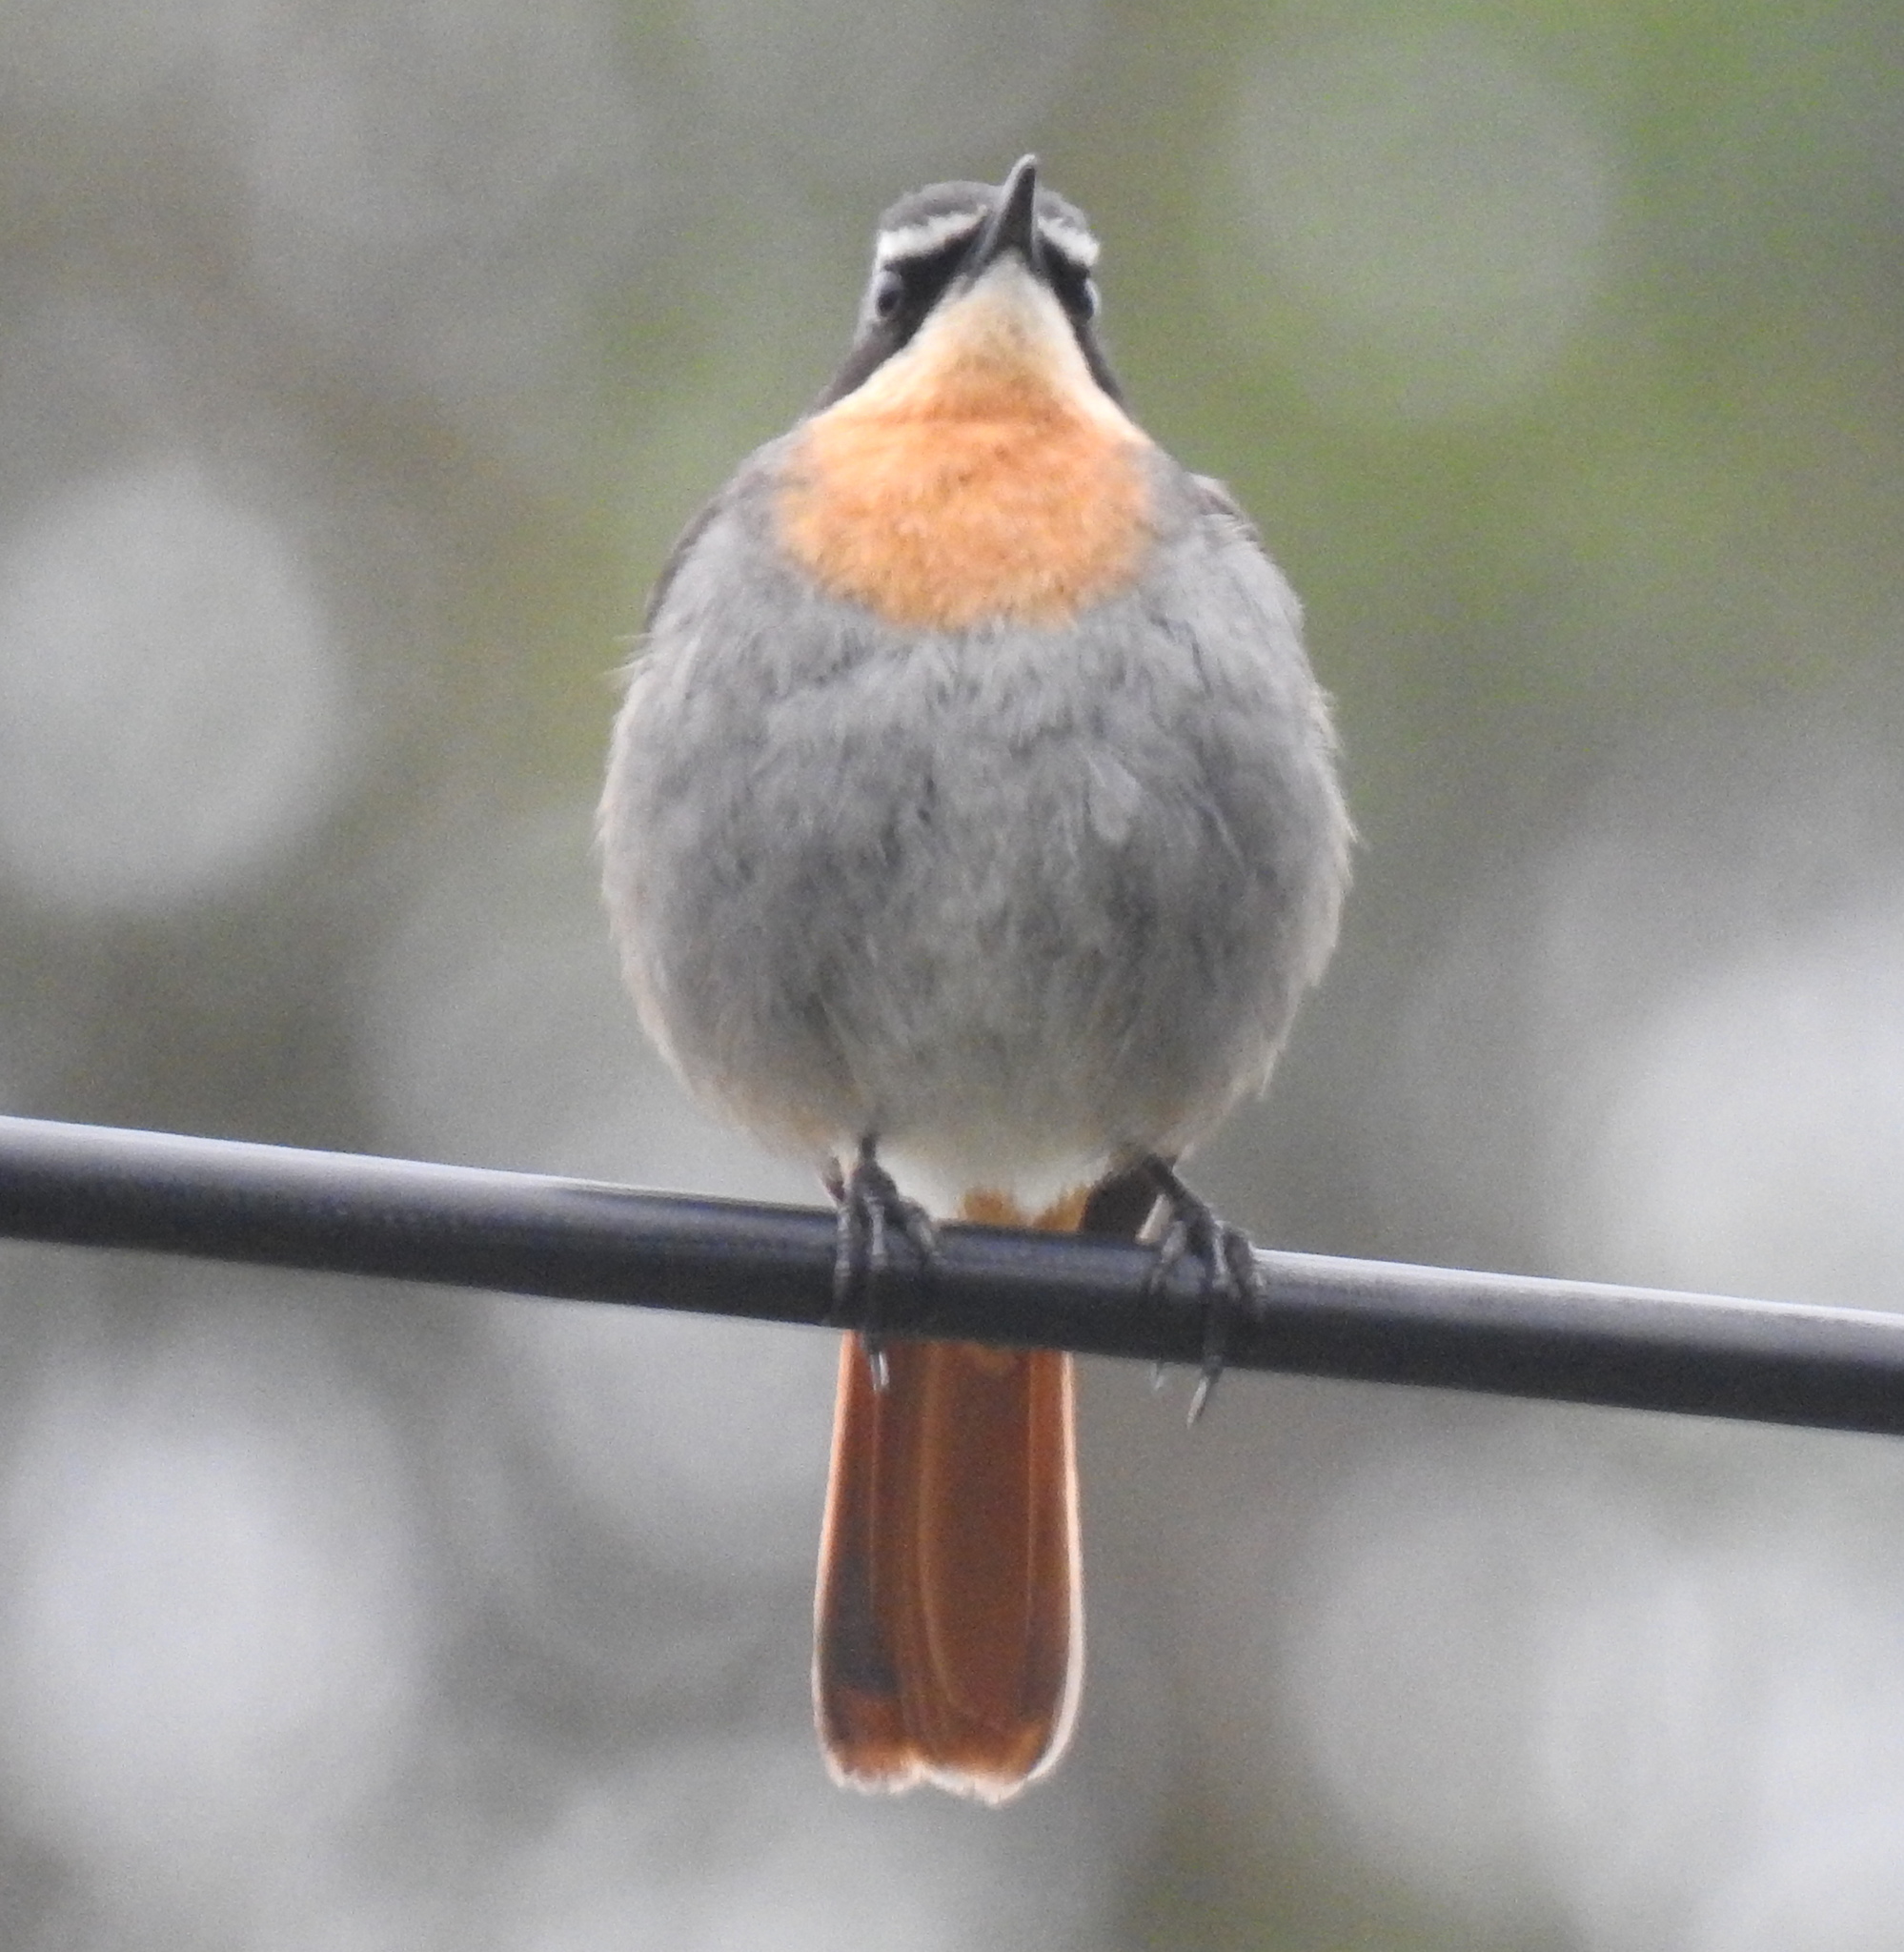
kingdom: Animalia
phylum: Chordata
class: Aves
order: Passeriformes
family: Muscicapidae
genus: Cossypha
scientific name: Cossypha caffra
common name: Cape robin-chat
